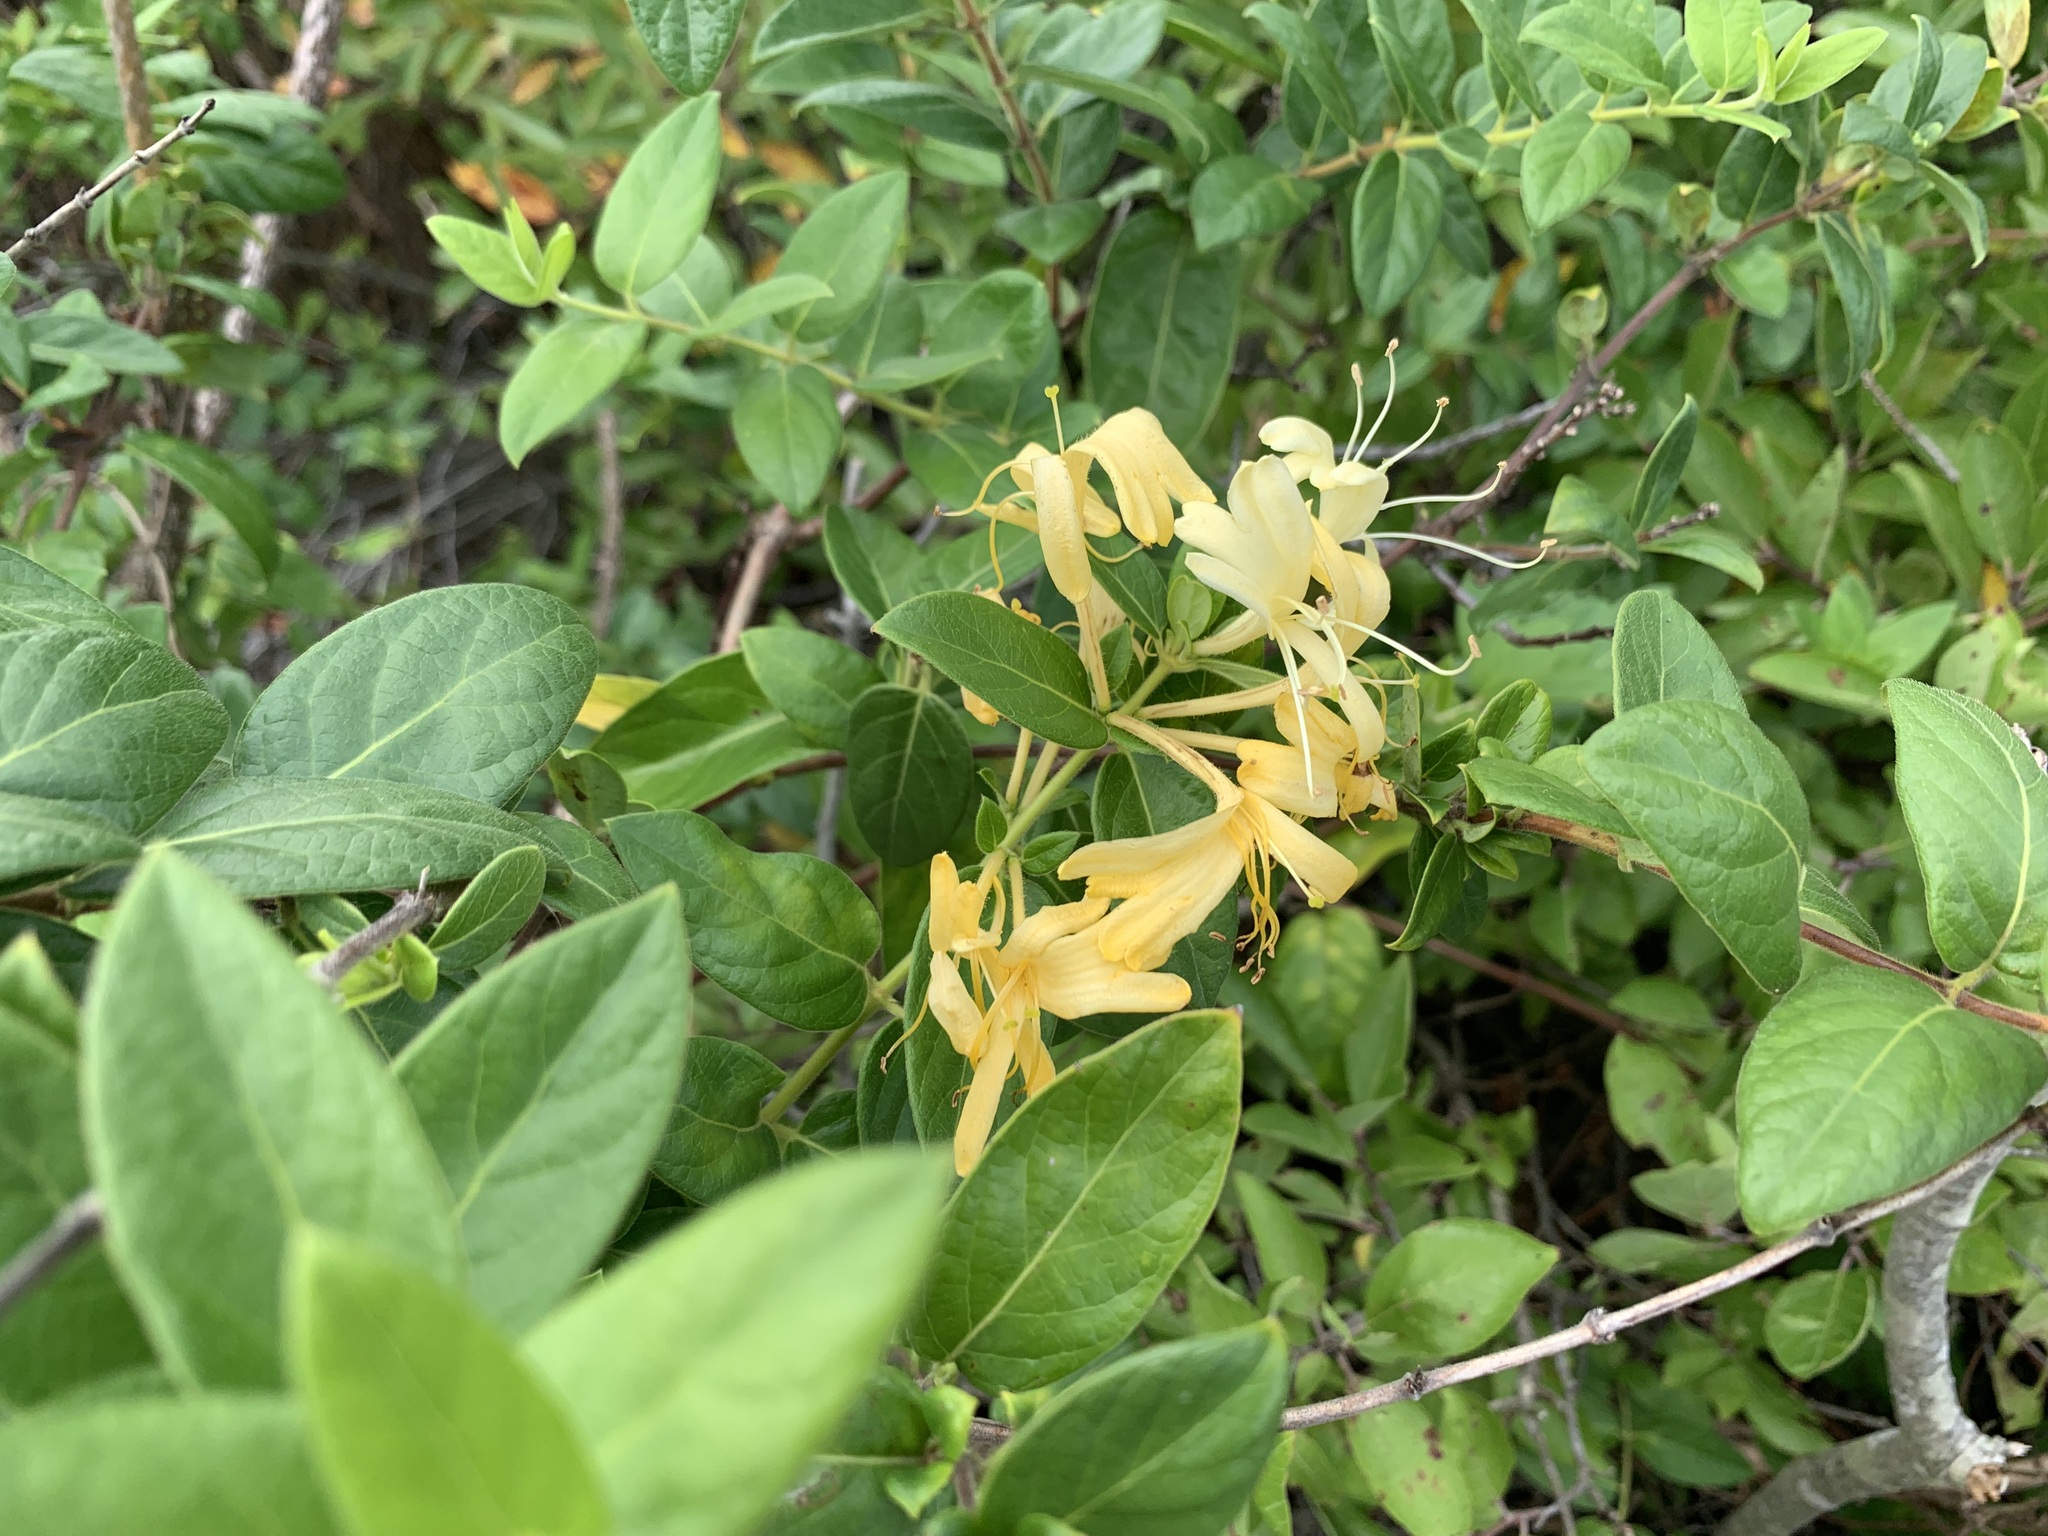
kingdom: Plantae
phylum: Tracheophyta
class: Magnoliopsida
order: Dipsacales
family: Caprifoliaceae
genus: Lonicera
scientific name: Lonicera japonica
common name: Japanese honeysuckle
